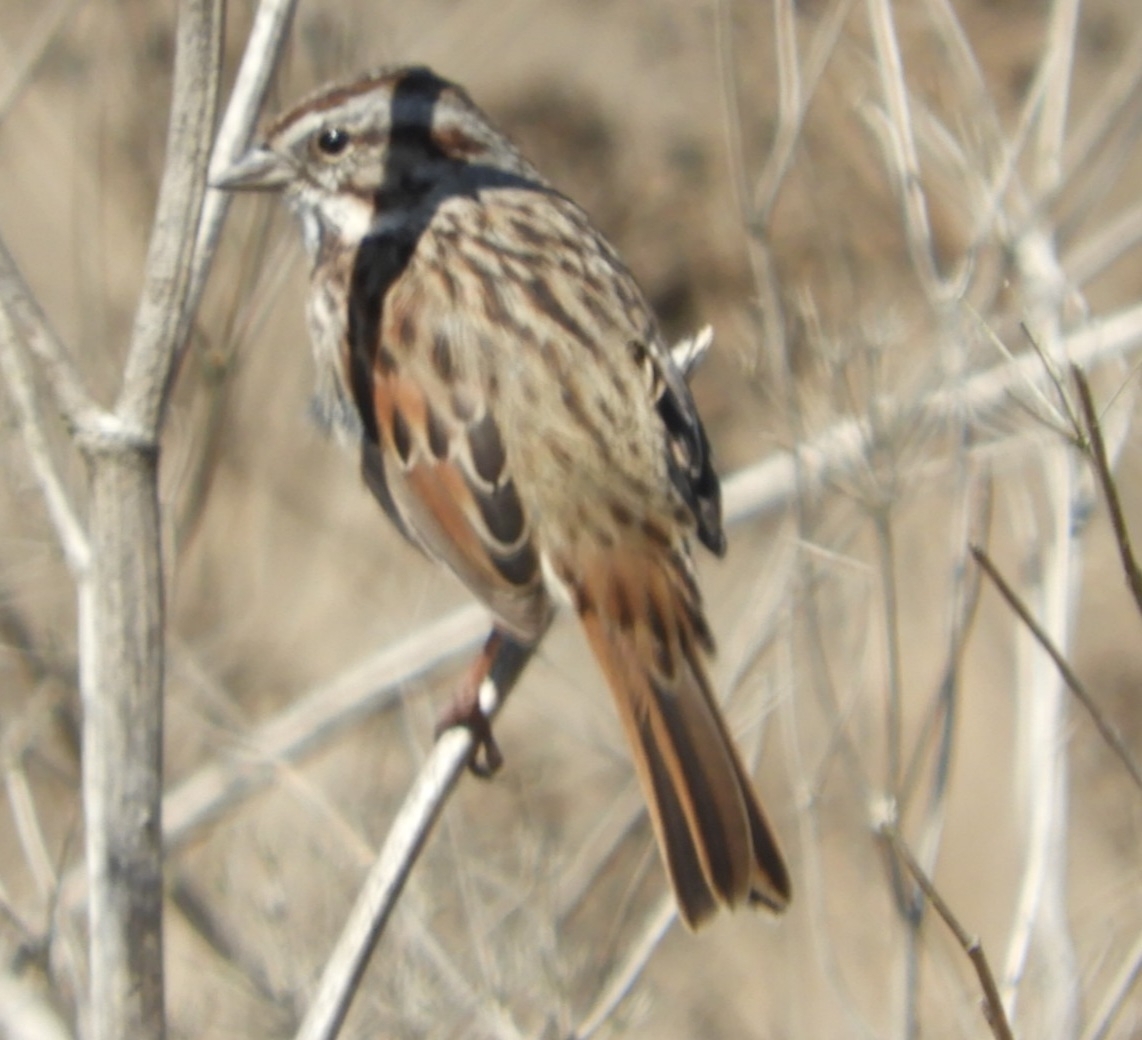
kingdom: Animalia
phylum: Chordata
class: Aves
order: Passeriformes
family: Passerellidae
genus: Melospiza
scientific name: Melospiza melodia
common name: Song sparrow
